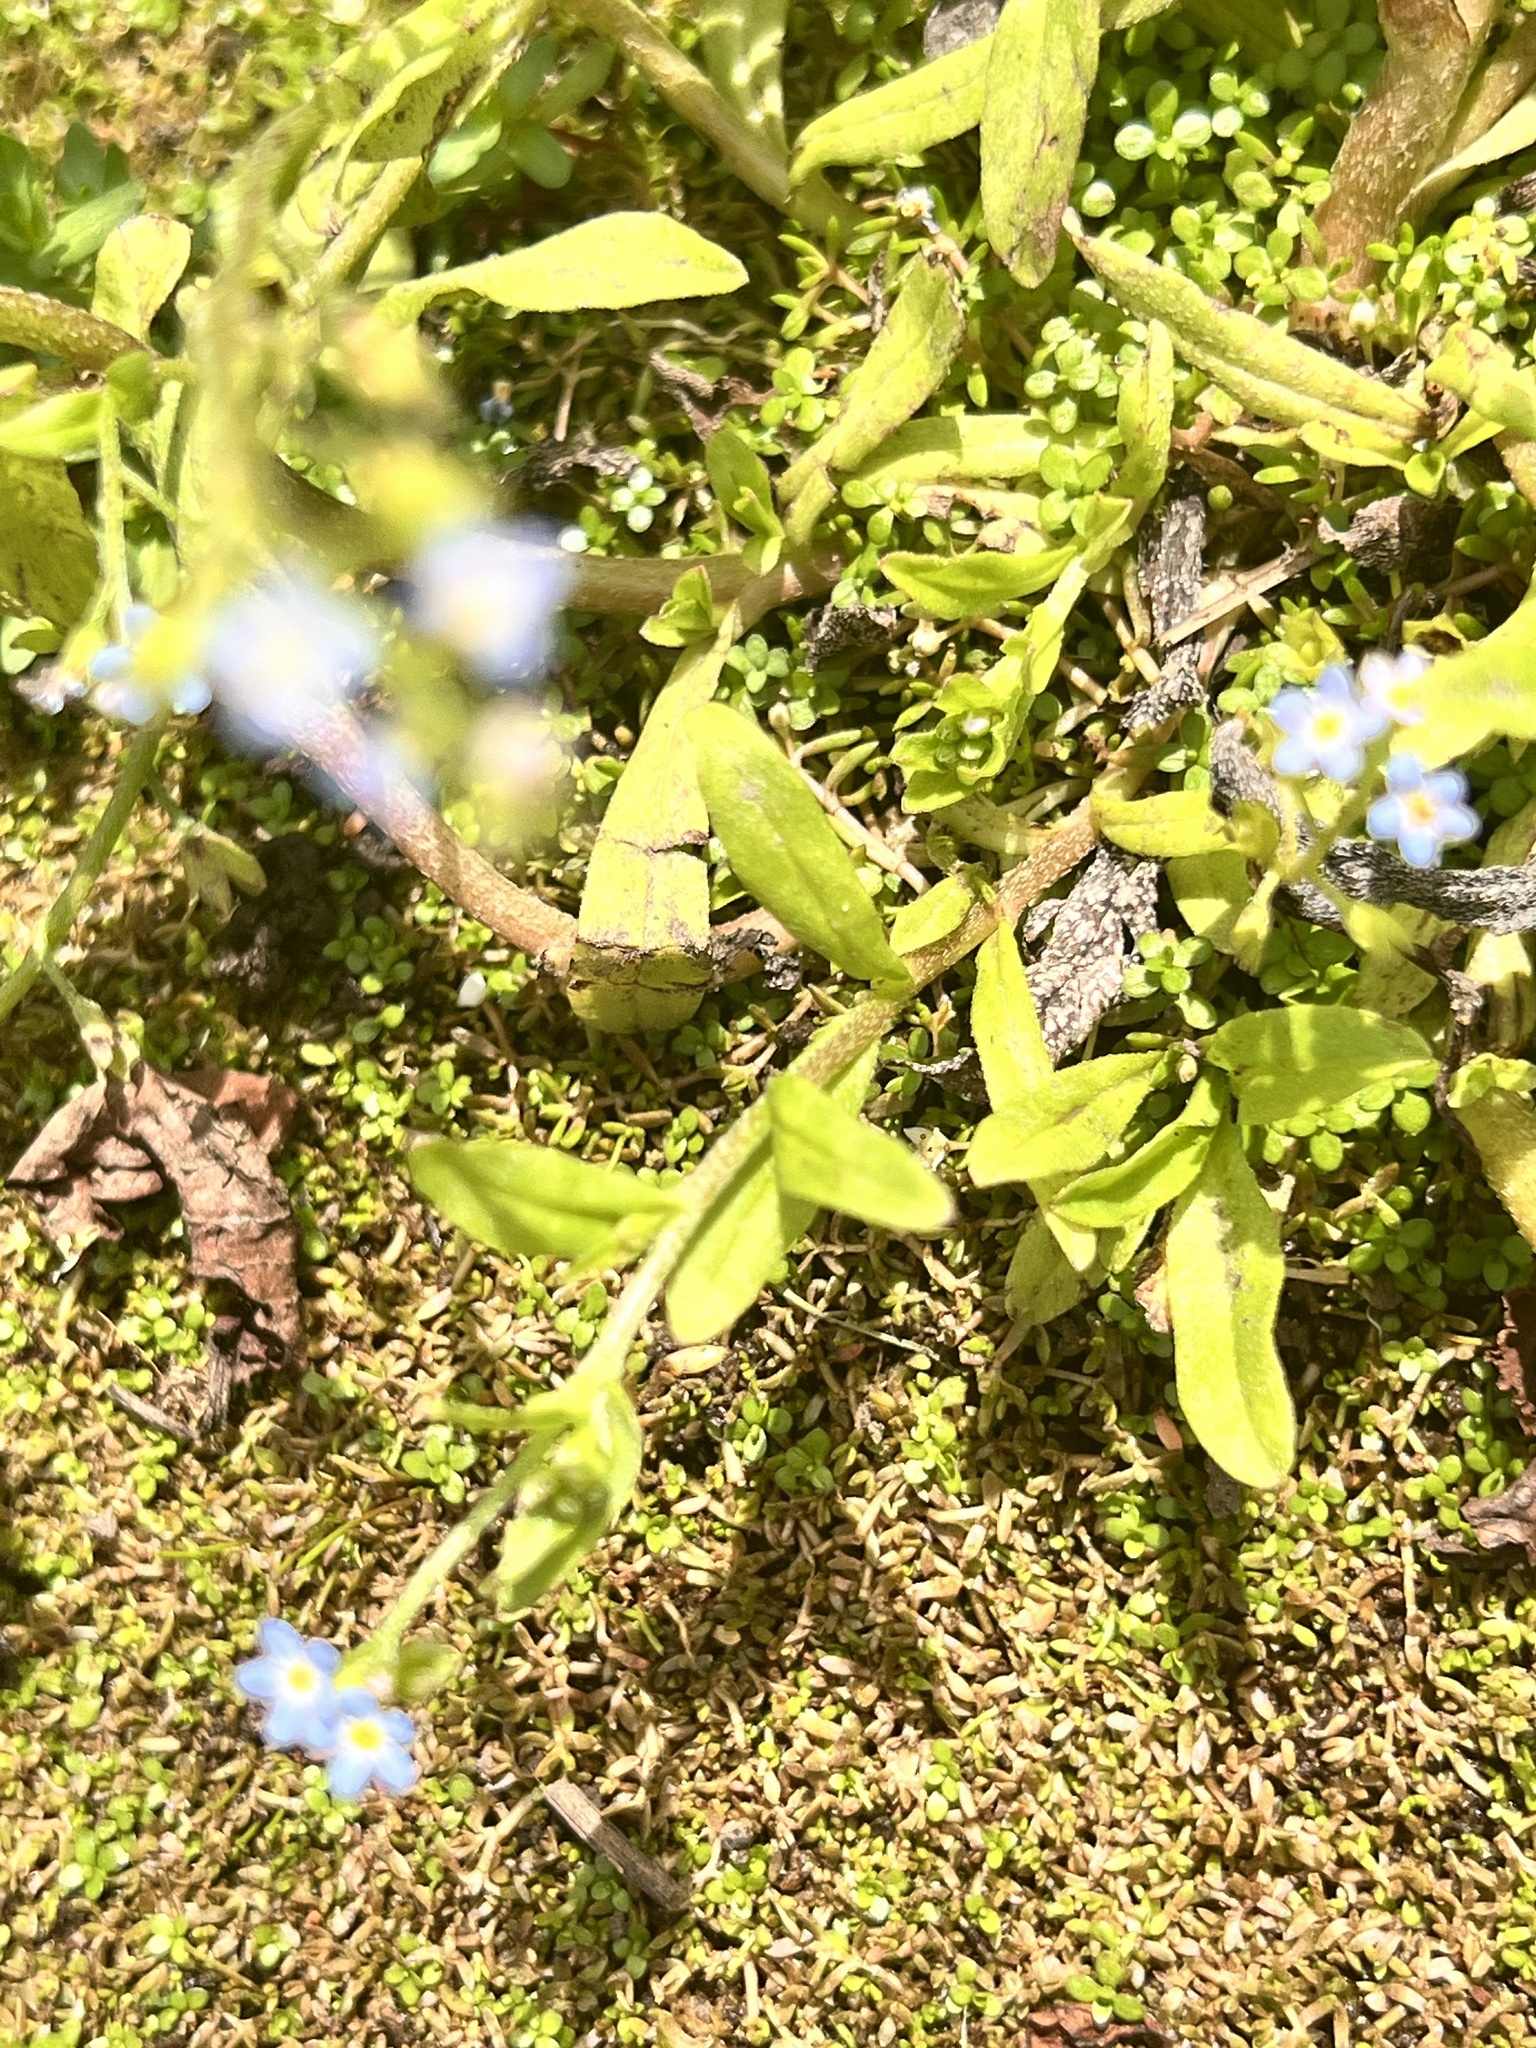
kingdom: Plantae
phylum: Tracheophyta
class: Magnoliopsida
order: Boraginales
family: Boraginaceae
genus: Myosotis
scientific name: Myosotis laxa
